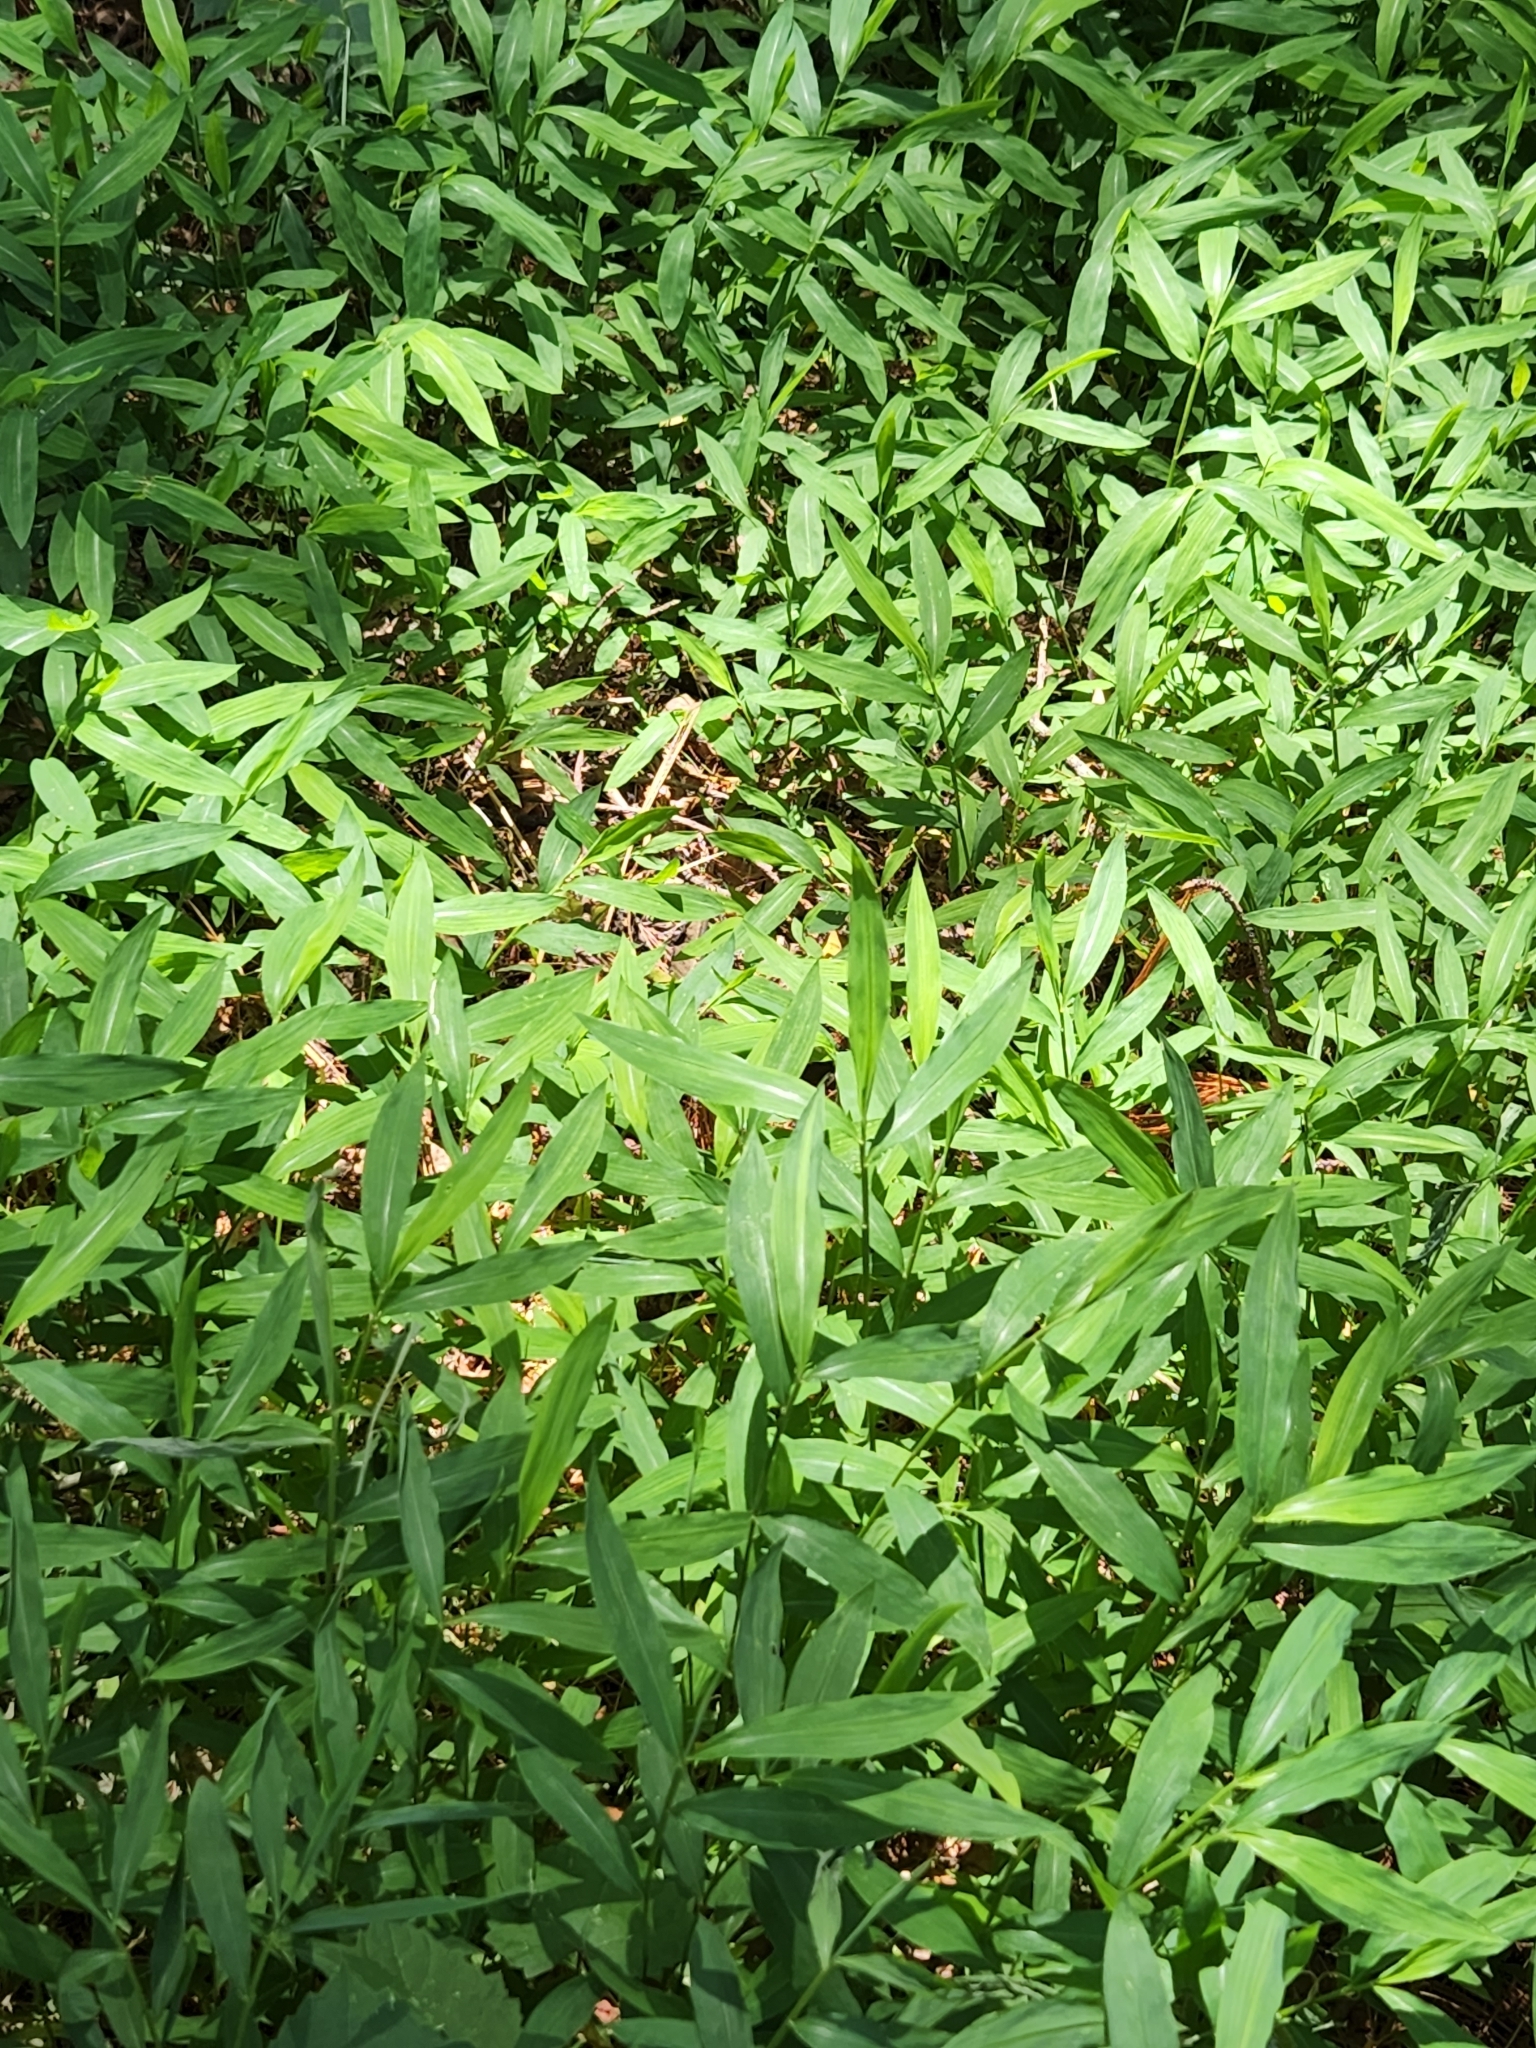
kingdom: Plantae
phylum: Tracheophyta
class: Liliopsida
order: Poales
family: Poaceae
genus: Microstegium
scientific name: Microstegium vimineum
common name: Japanese stiltgrass
